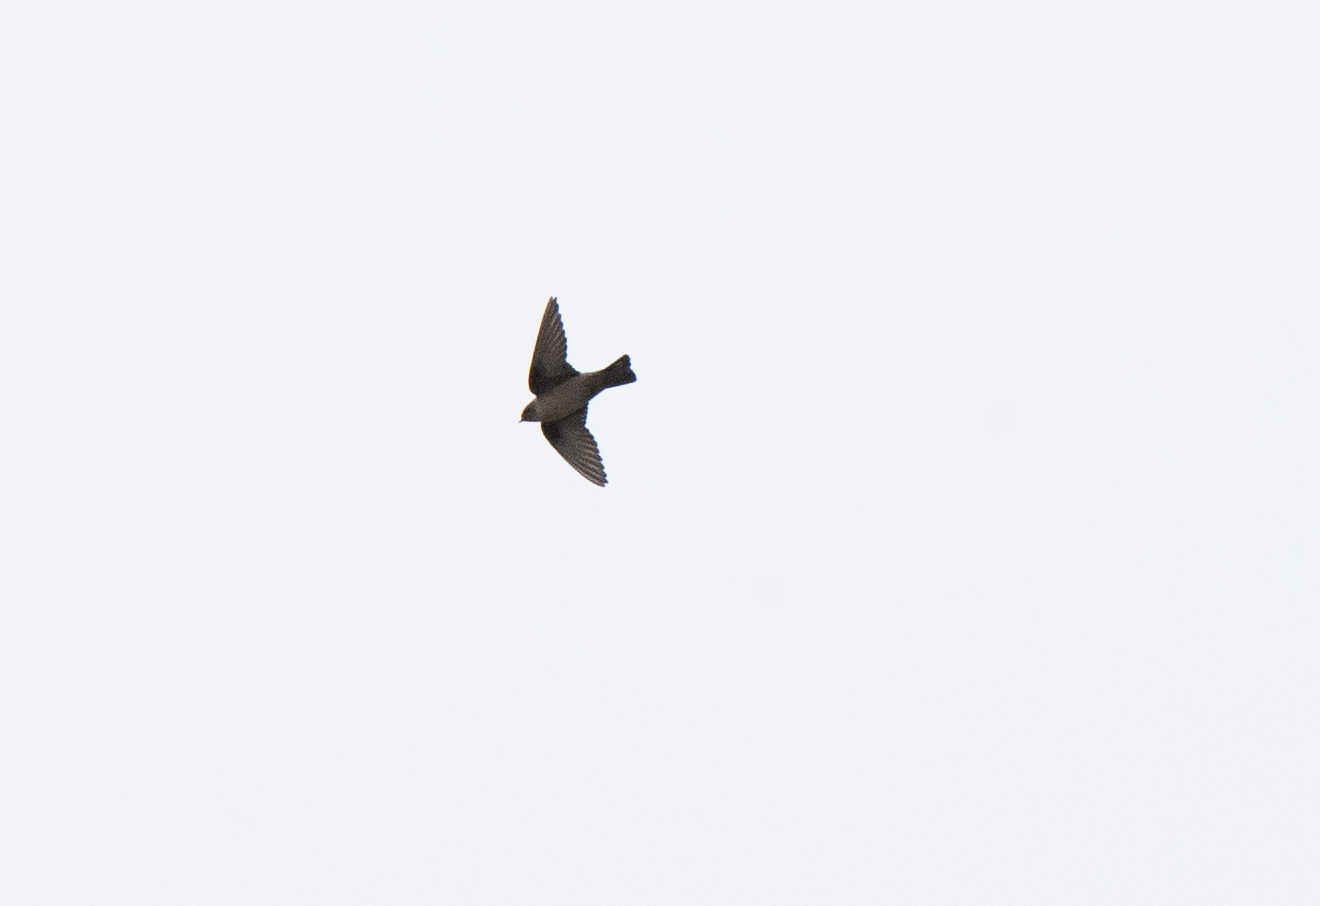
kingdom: Animalia
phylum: Chordata
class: Aves
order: Passeriformes
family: Hirundinidae
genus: Ptyonoprogne
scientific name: Ptyonoprogne rupestris
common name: Eurasian crag martin
